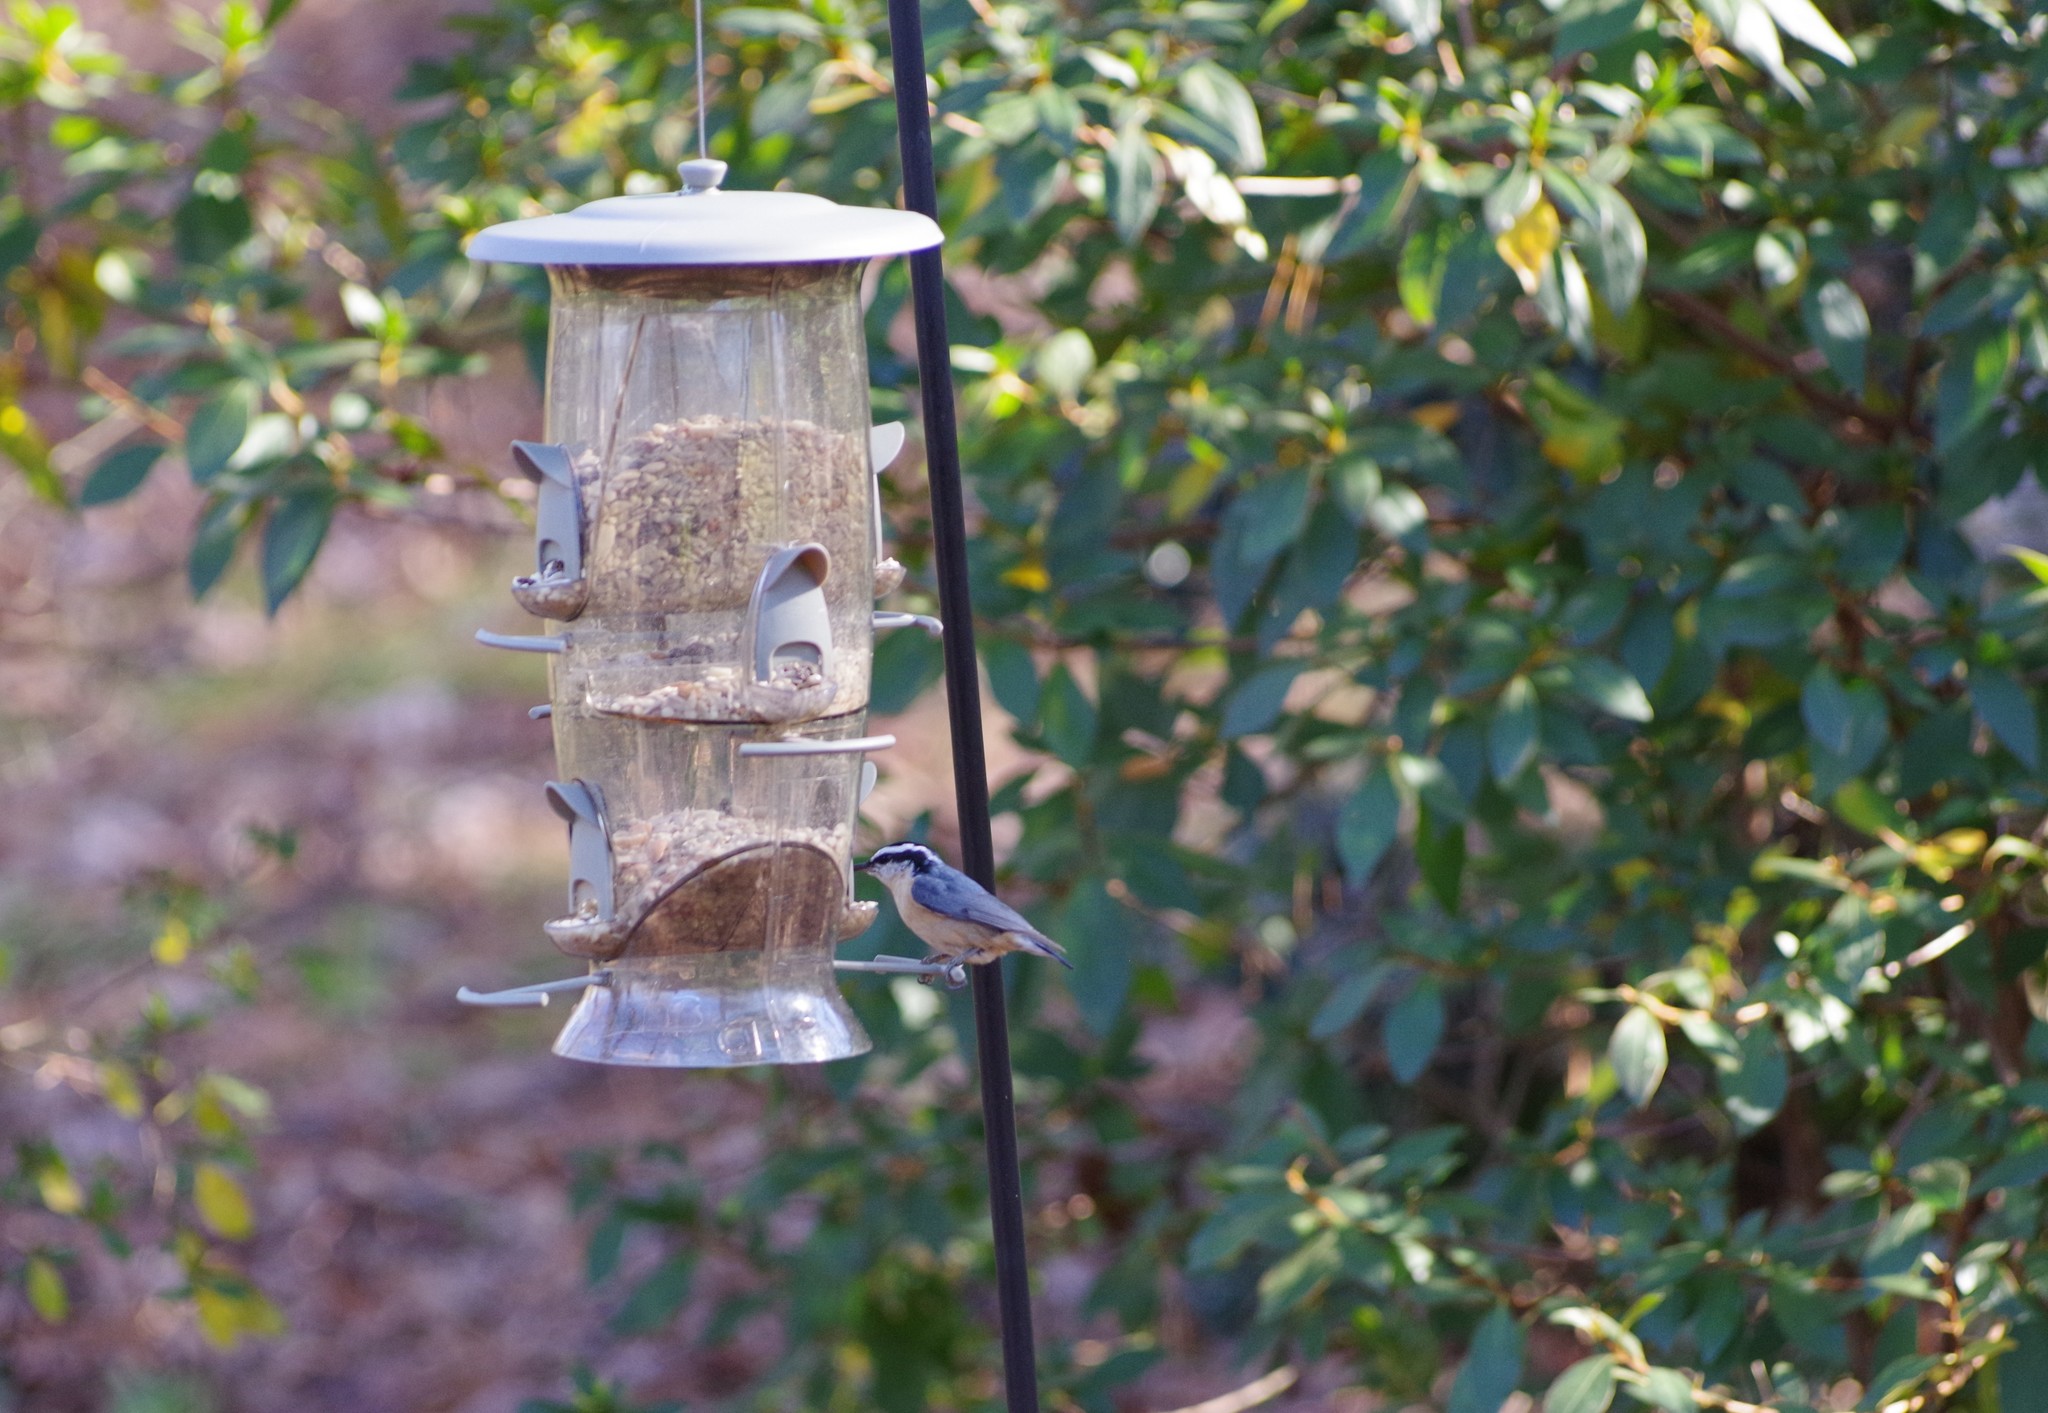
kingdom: Animalia
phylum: Chordata
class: Aves
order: Passeriformes
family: Sittidae
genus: Sitta
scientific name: Sitta canadensis
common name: Red-breasted nuthatch
